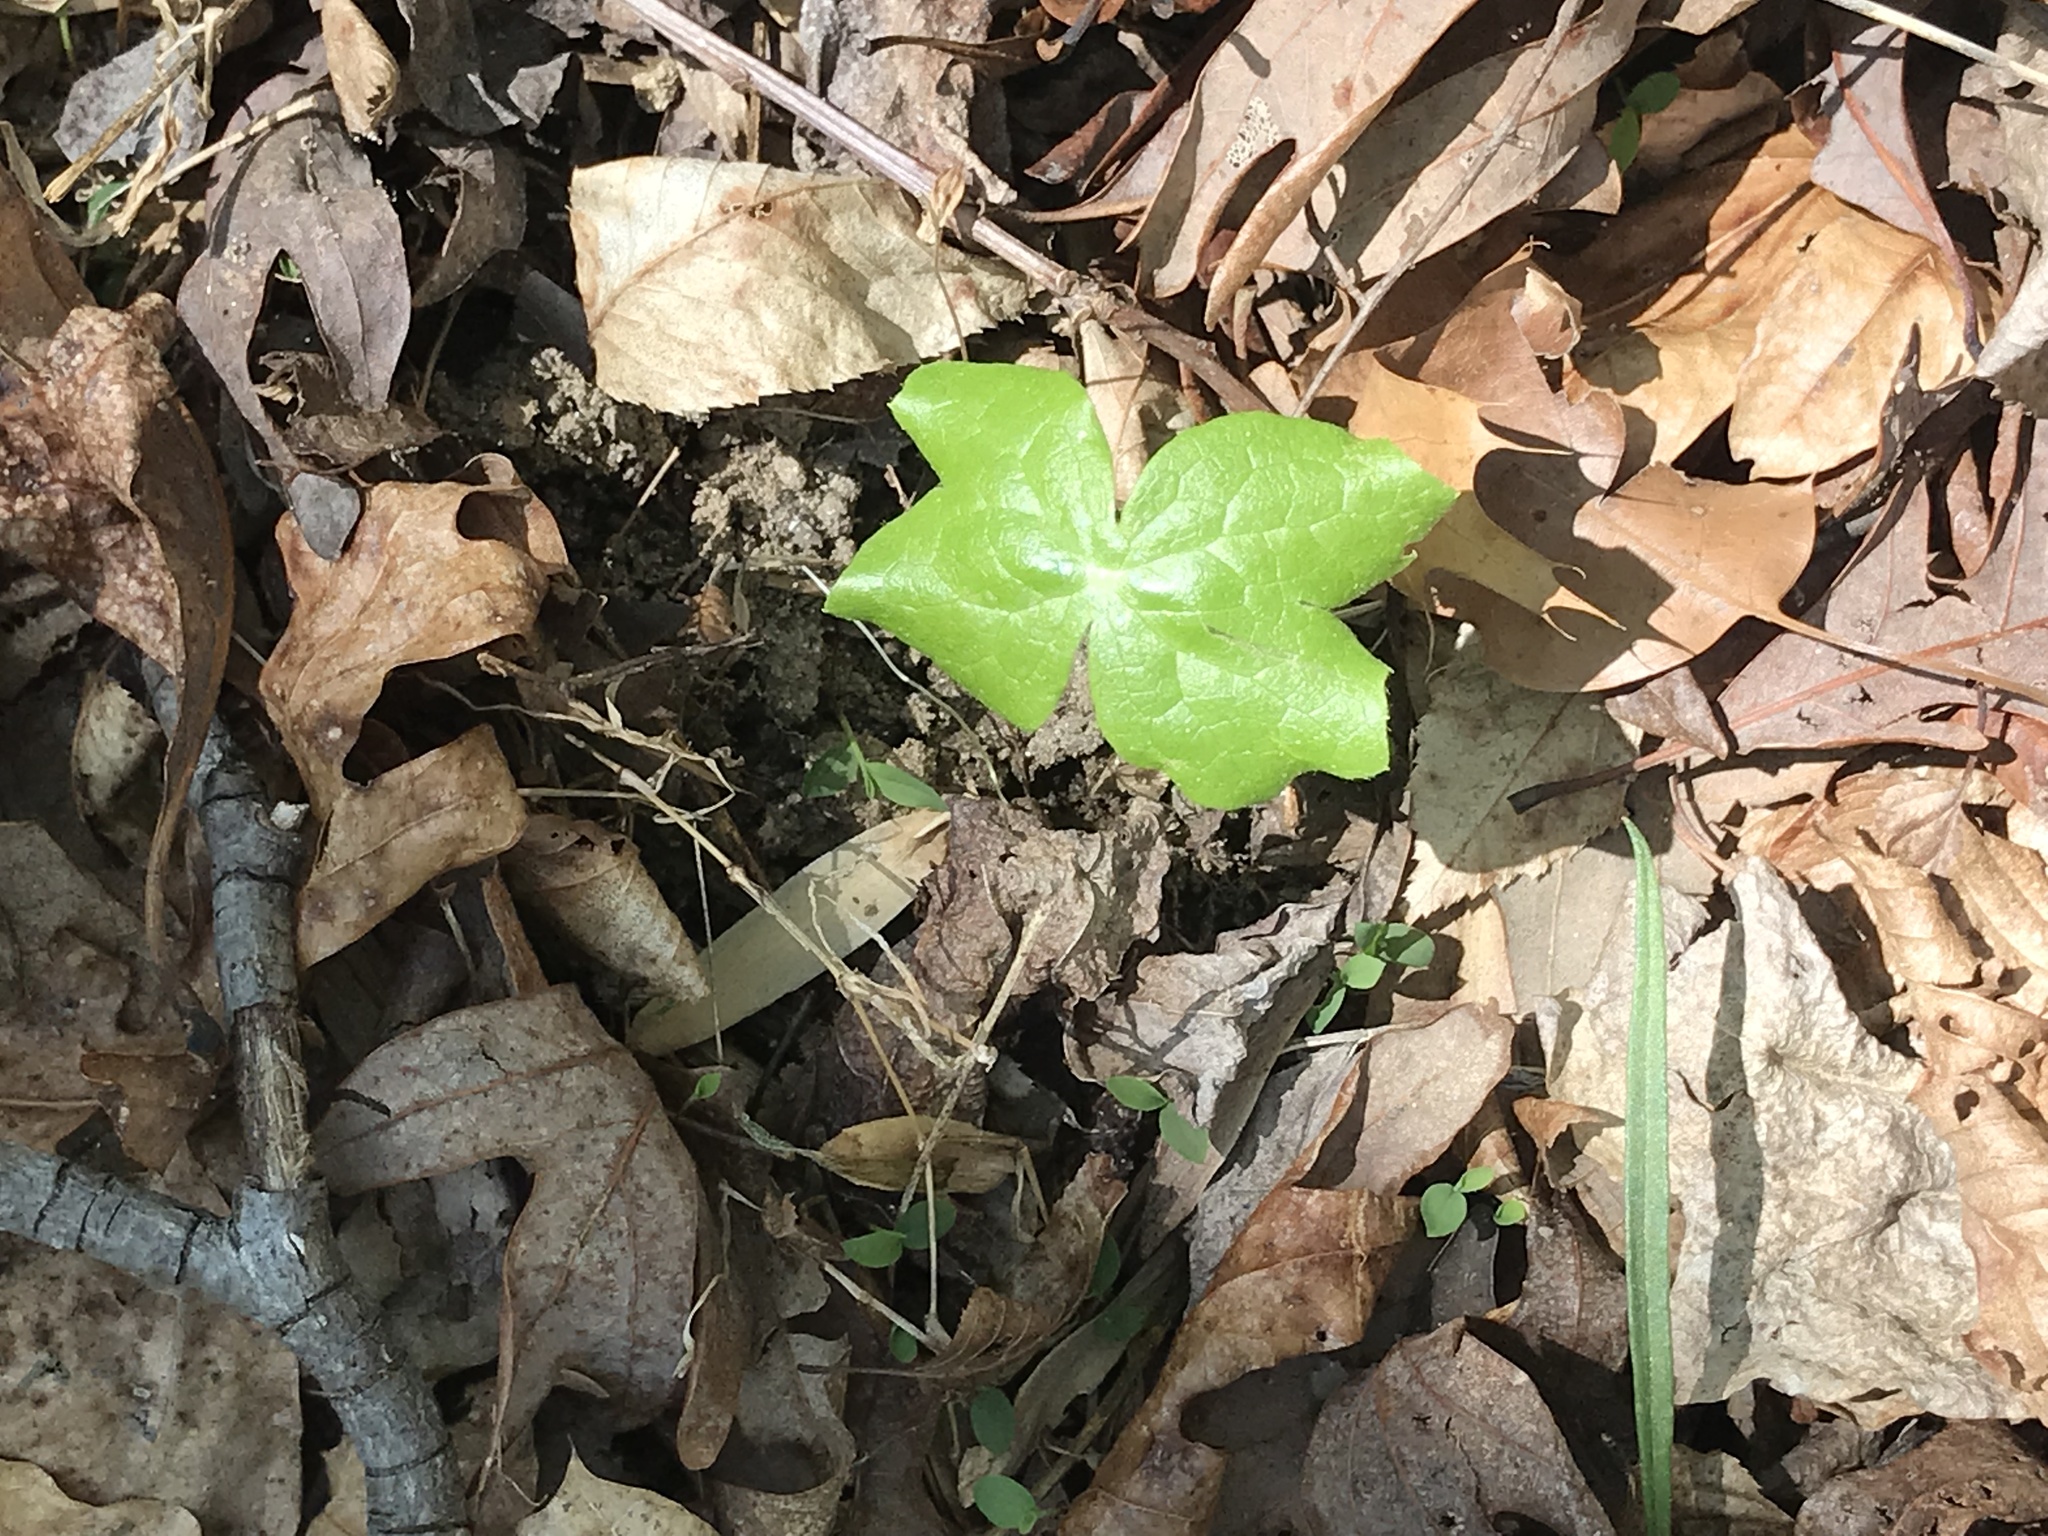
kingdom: Plantae
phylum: Tracheophyta
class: Magnoliopsida
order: Ranunculales
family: Berberidaceae
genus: Podophyllum
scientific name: Podophyllum peltatum
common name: Wild mandrake
